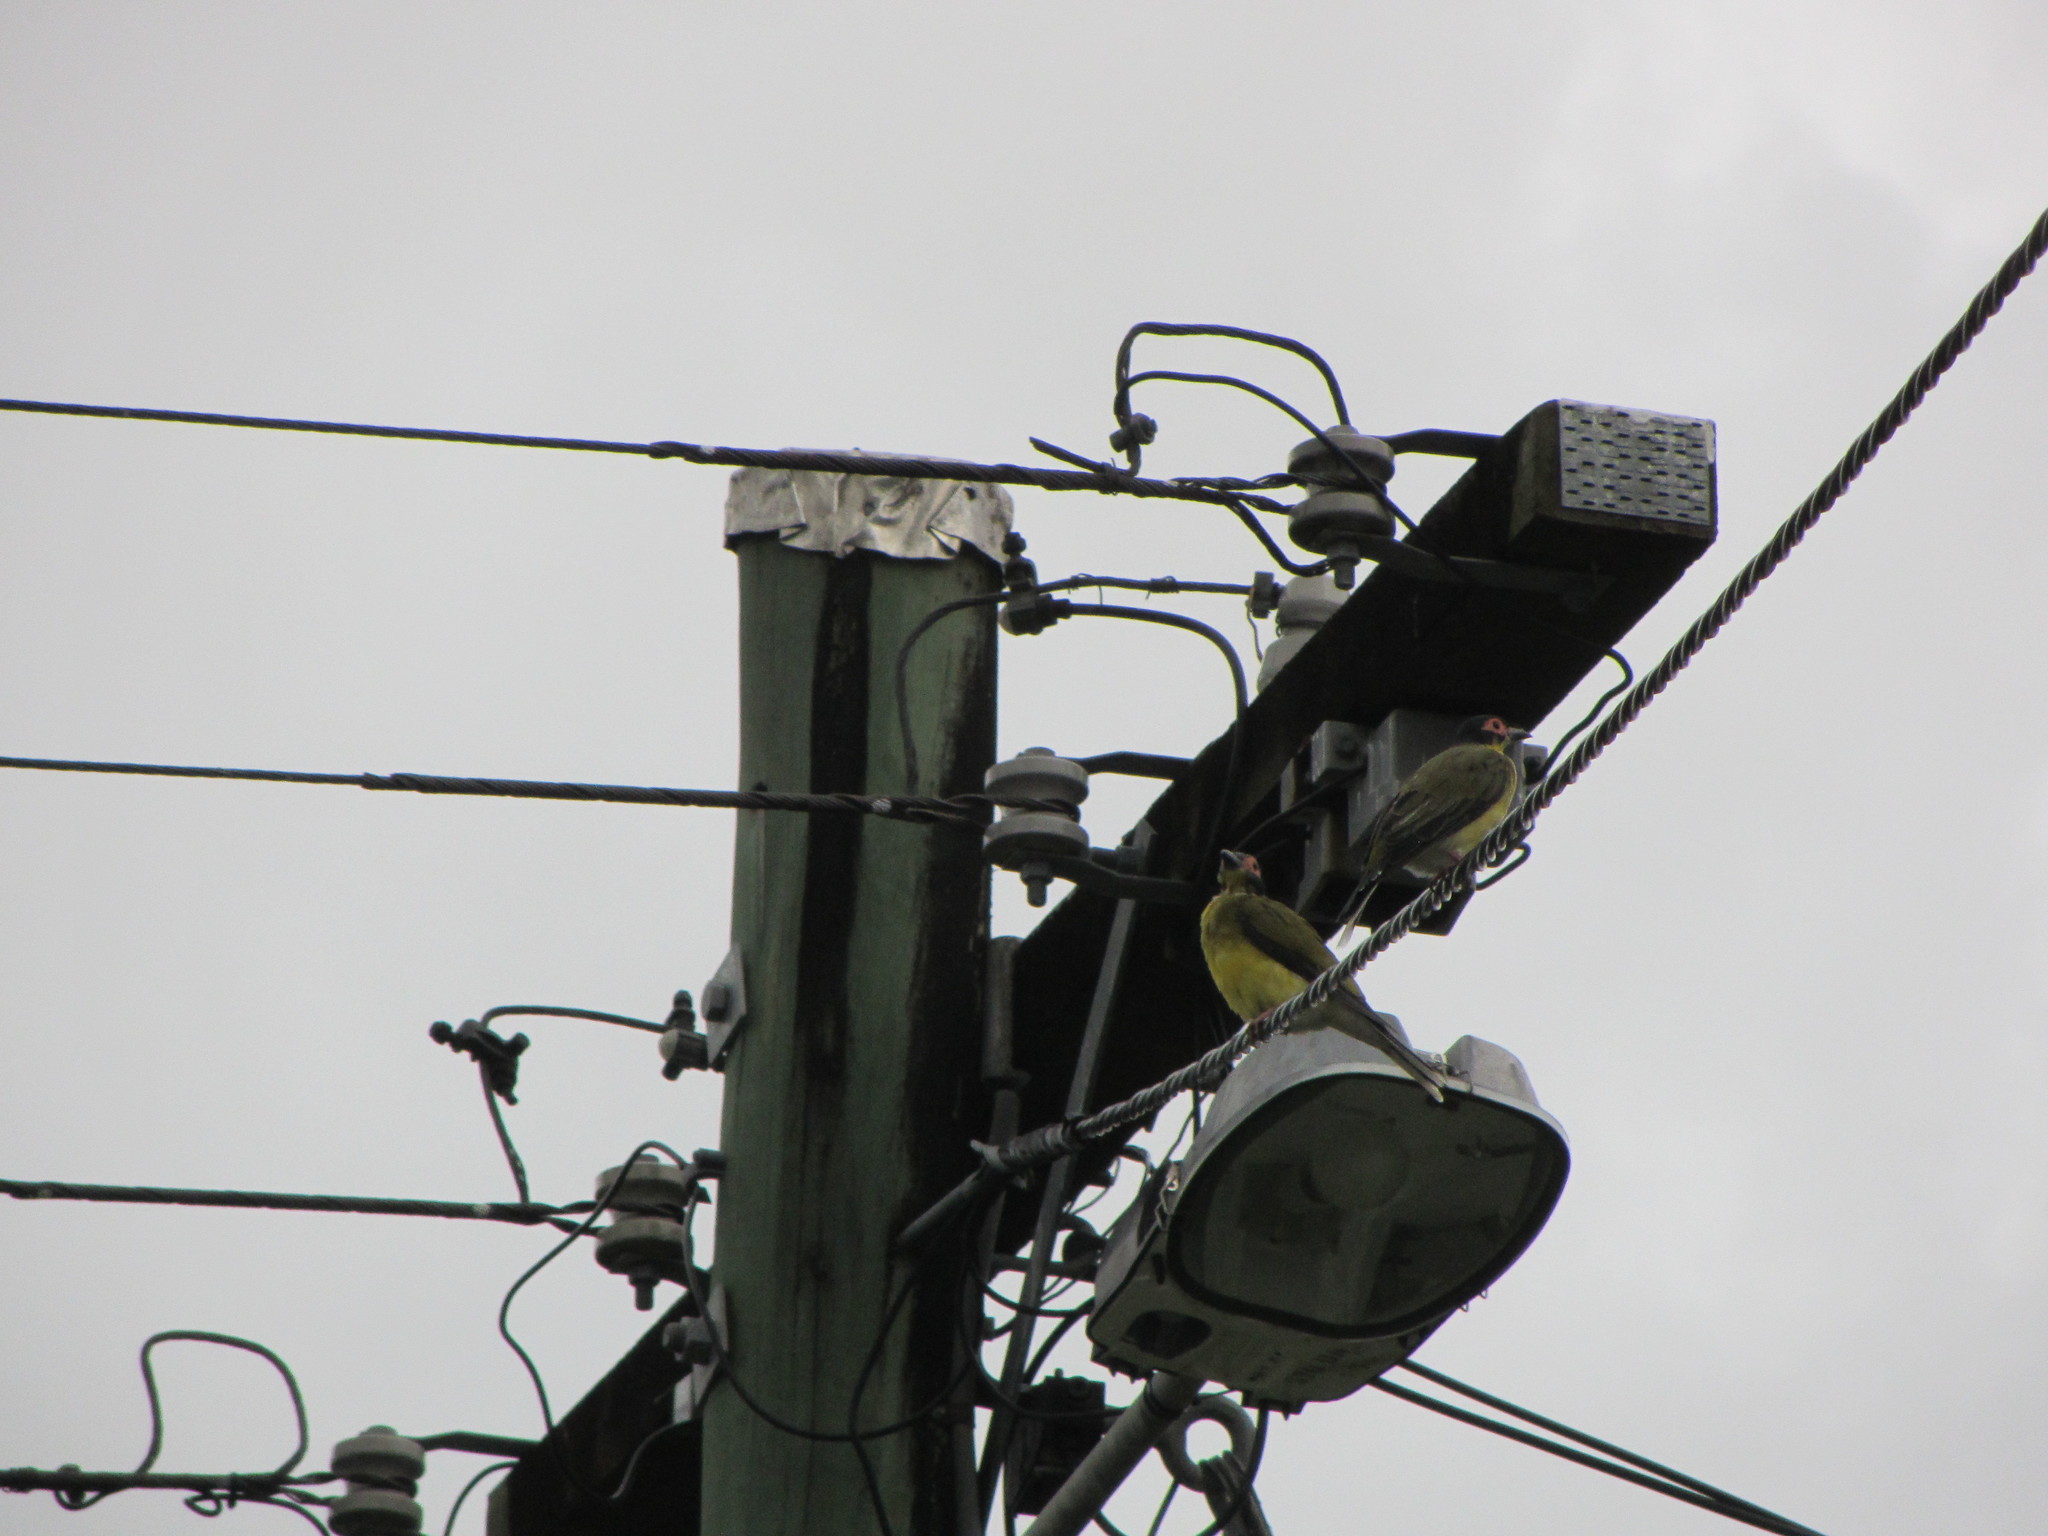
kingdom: Animalia
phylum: Chordata
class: Aves
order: Passeriformes
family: Oriolidae
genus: Sphecotheres
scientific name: Sphecotheres vieilloti
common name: Australasian figbird
